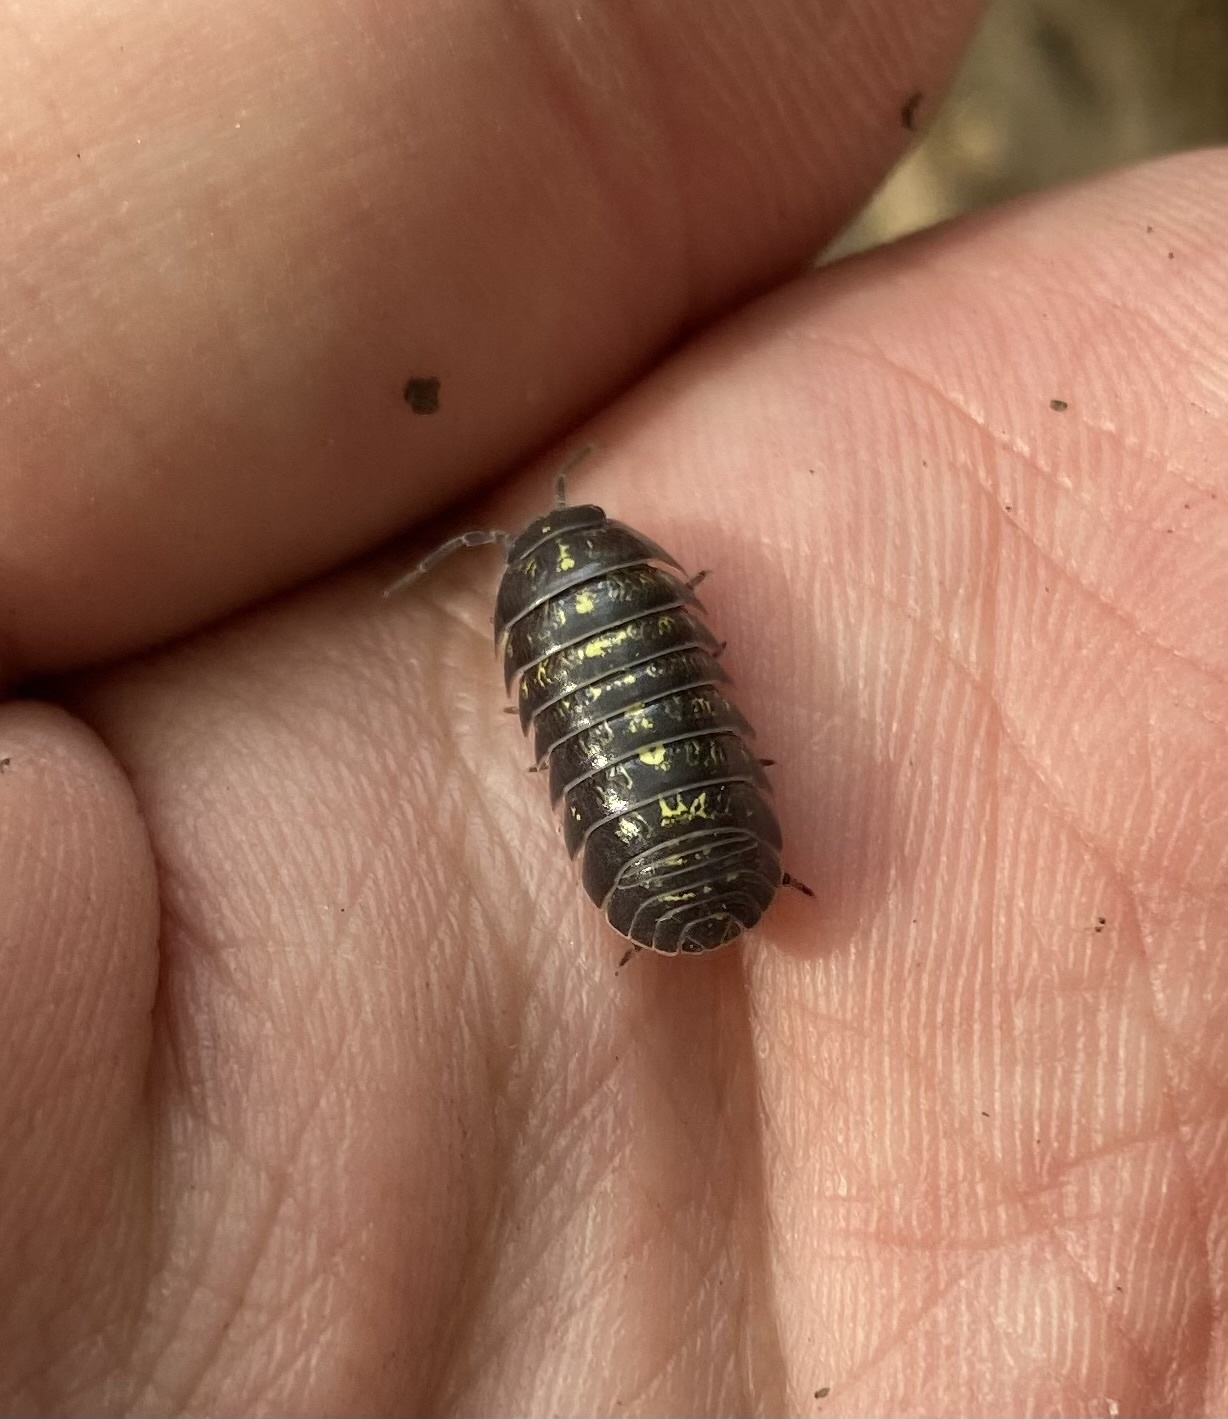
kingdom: Animalia
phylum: Arthropoda
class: Malacostraca
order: Isopoda
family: Armadillidiidae
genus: Armadillidium
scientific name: Armadillidium vulgare
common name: Common pill woodlouse
